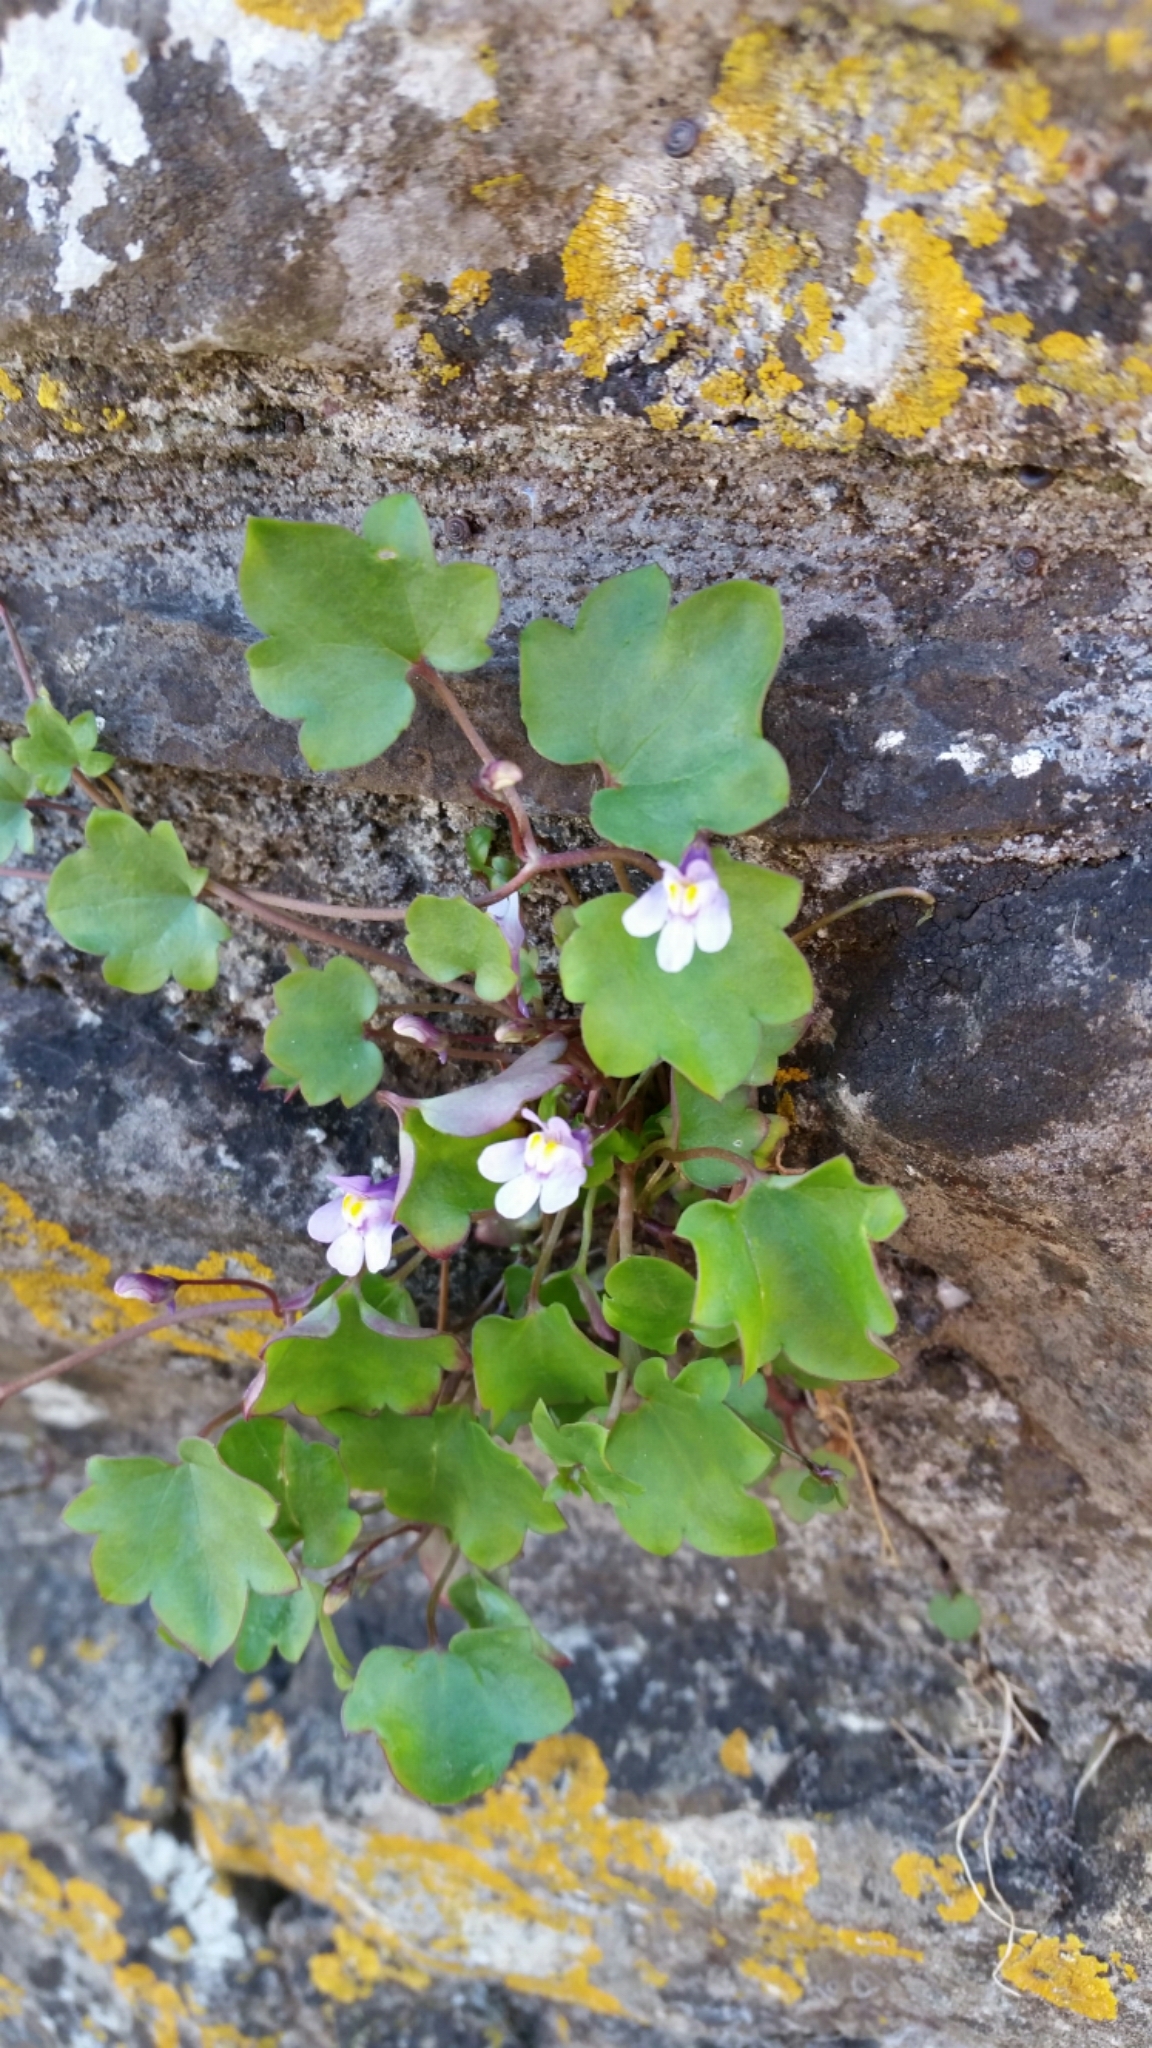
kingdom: Plantae
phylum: Tracheophyta
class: Magnoliopsida
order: Lamiales
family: Plantaginaceae
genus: Cymbalaria
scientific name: Cymbalaria muralis
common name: Ivy-leaved toadflax
